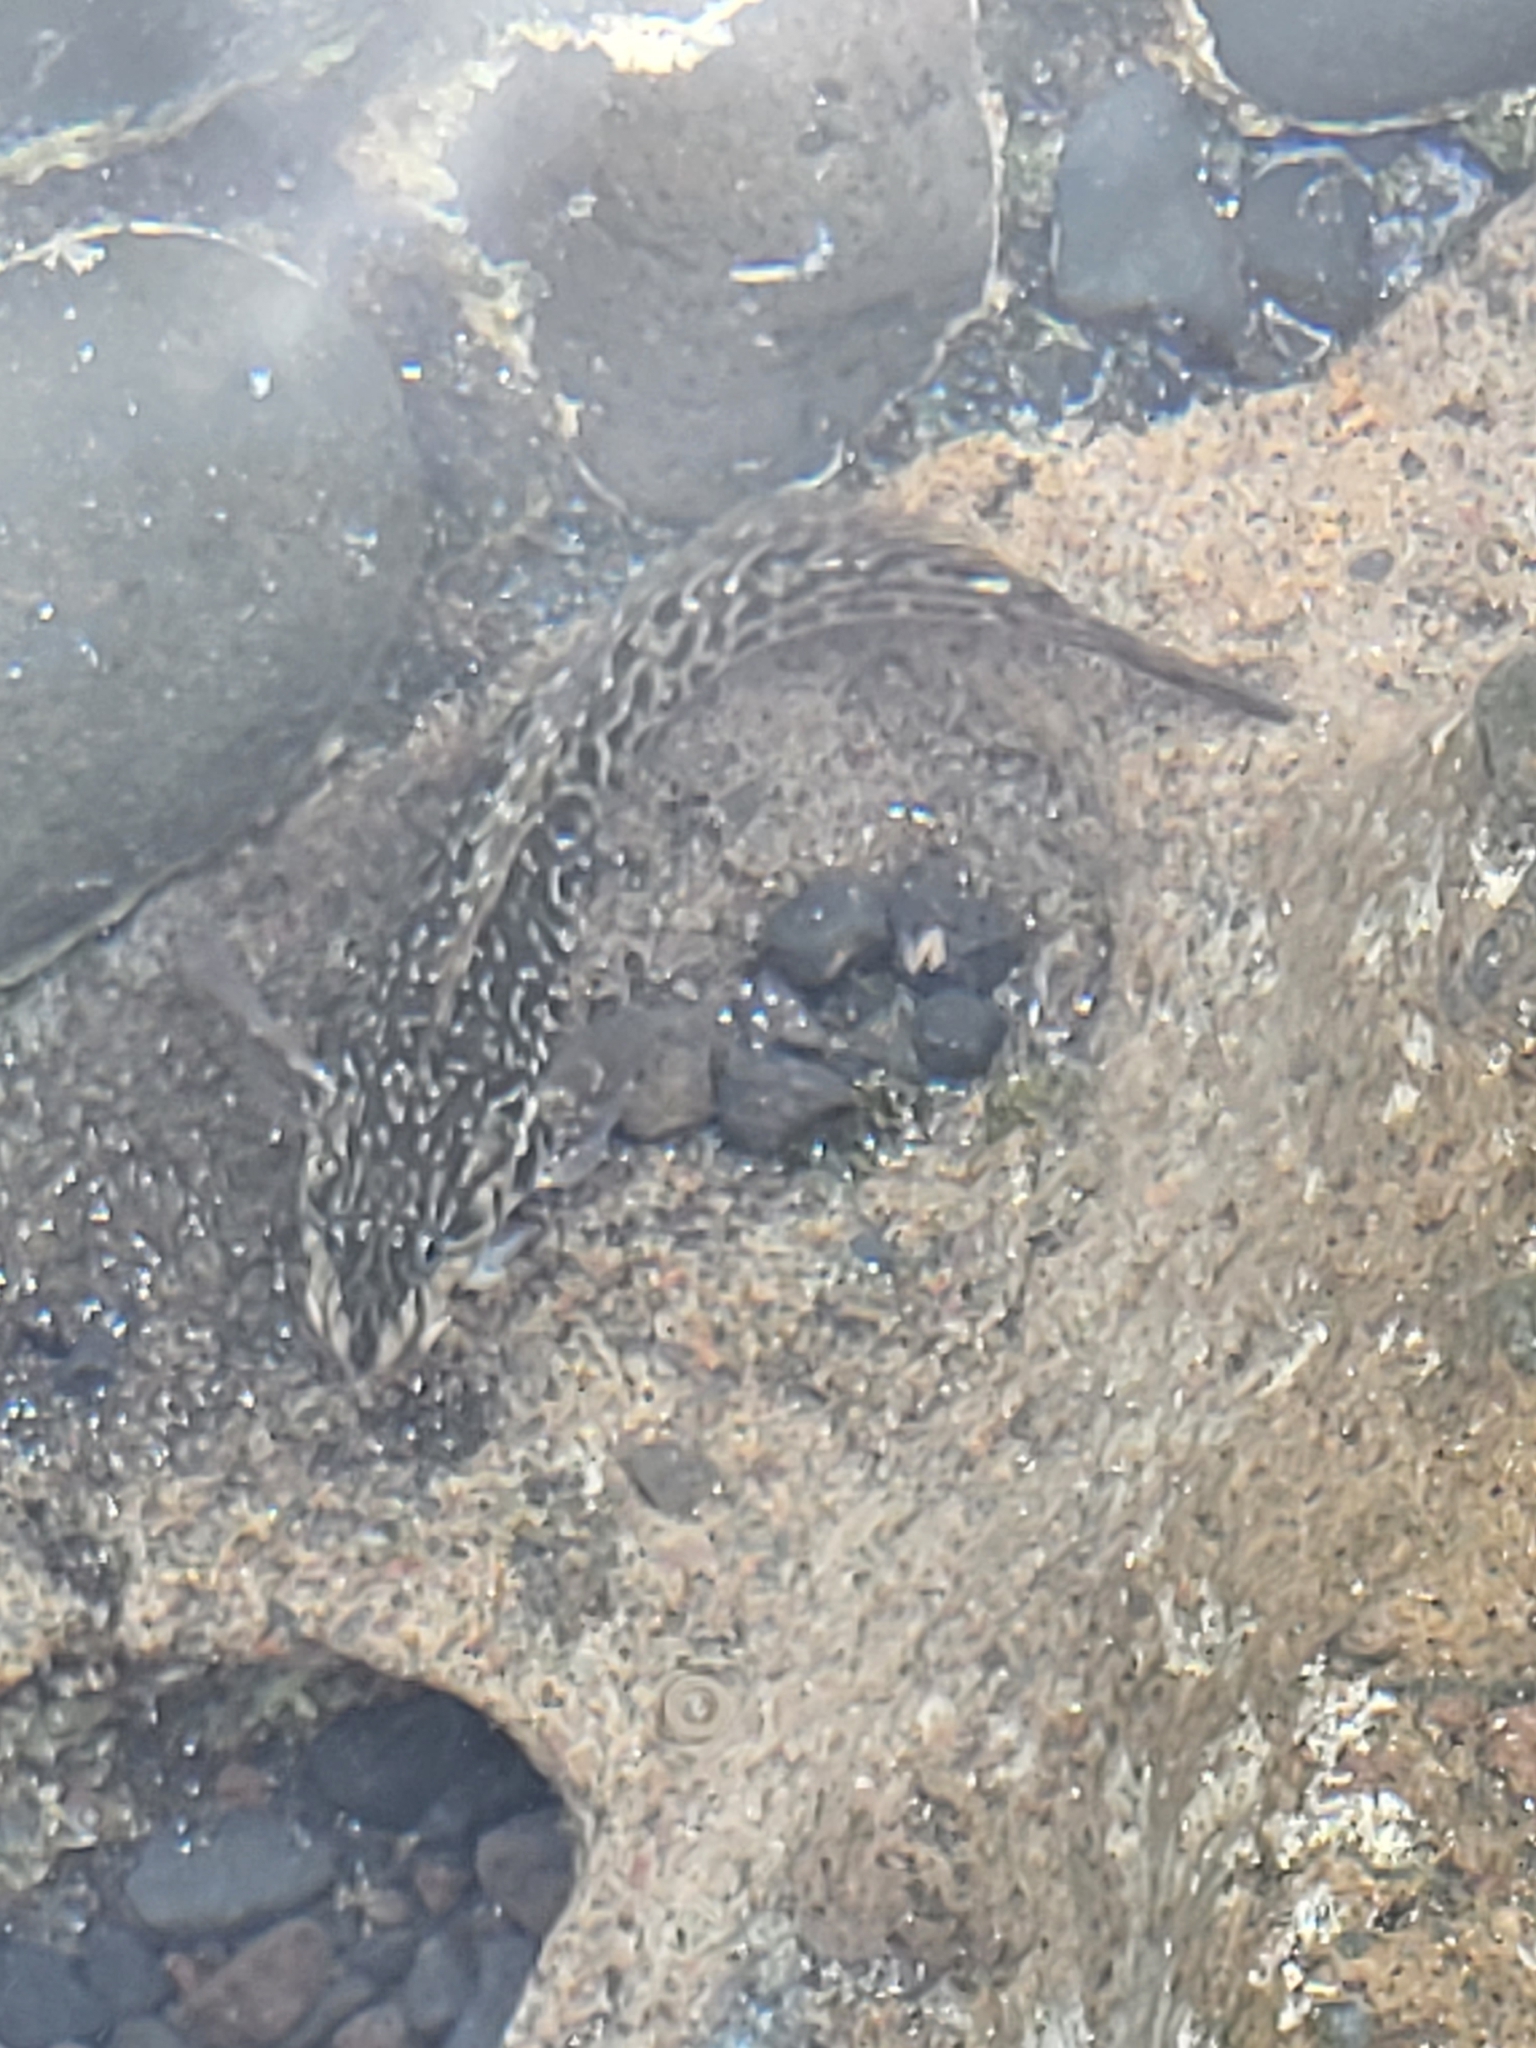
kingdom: Animalia
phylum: Chordata
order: Perciformes
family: Blenniidae
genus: Parablennius
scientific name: Parablennius parvicornis
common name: Rock-pool blenny
